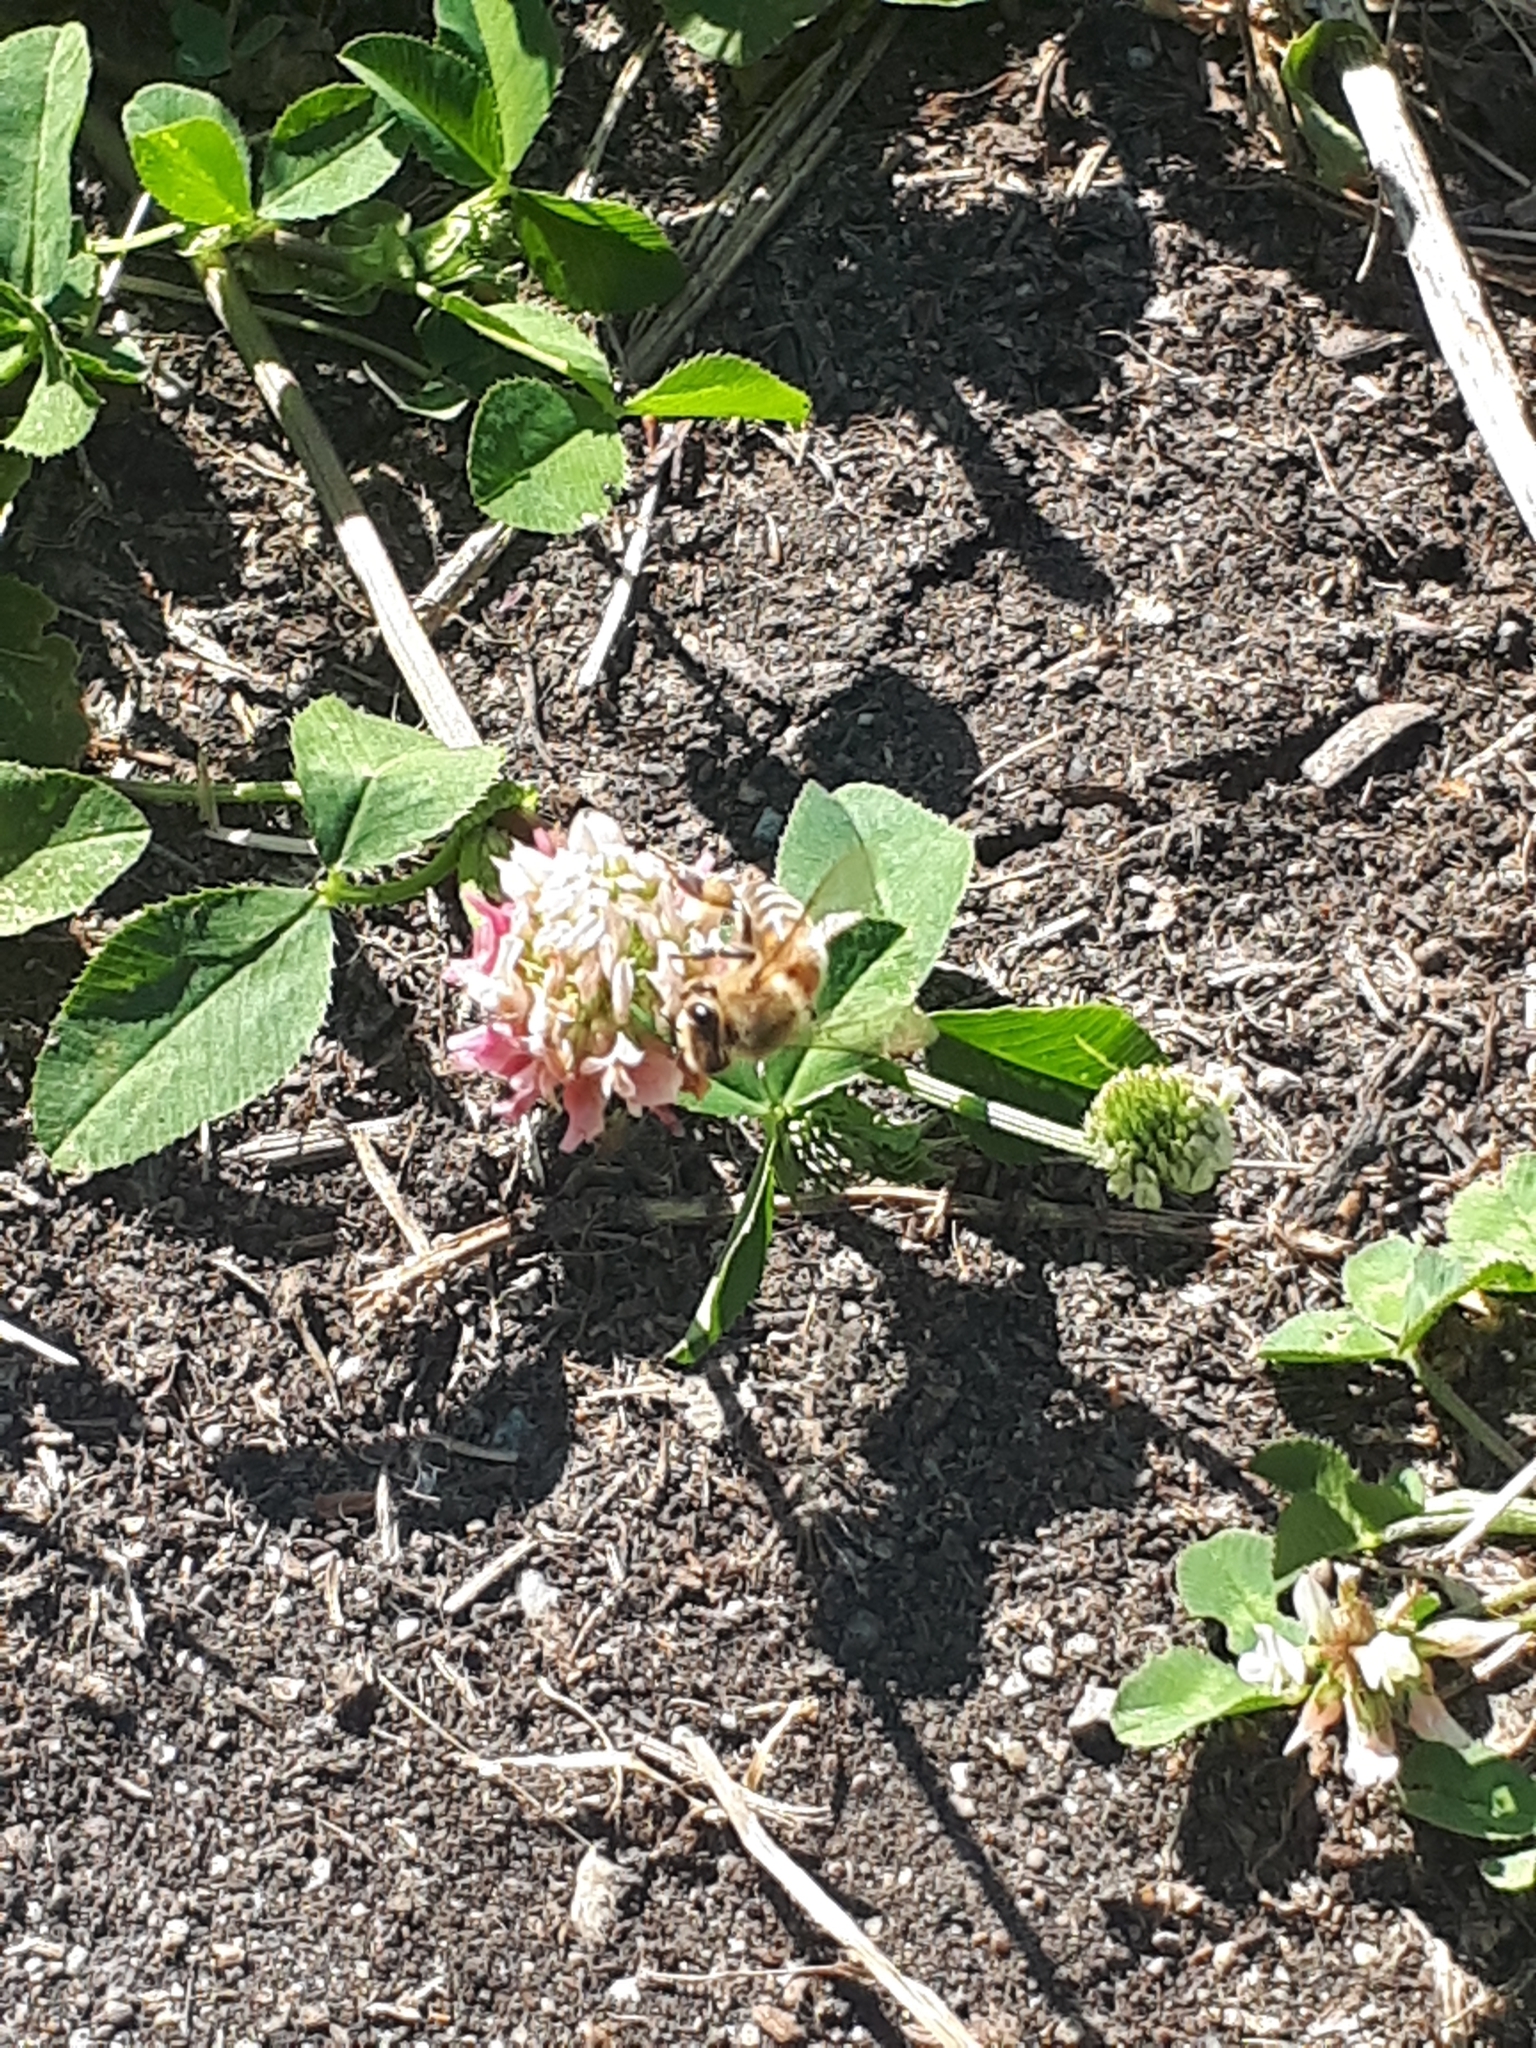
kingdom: Animalia
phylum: Arthropoda
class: Insecta
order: Hymenoptera
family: Apidae
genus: Apis
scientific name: Apis mellifera
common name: Honey bee
